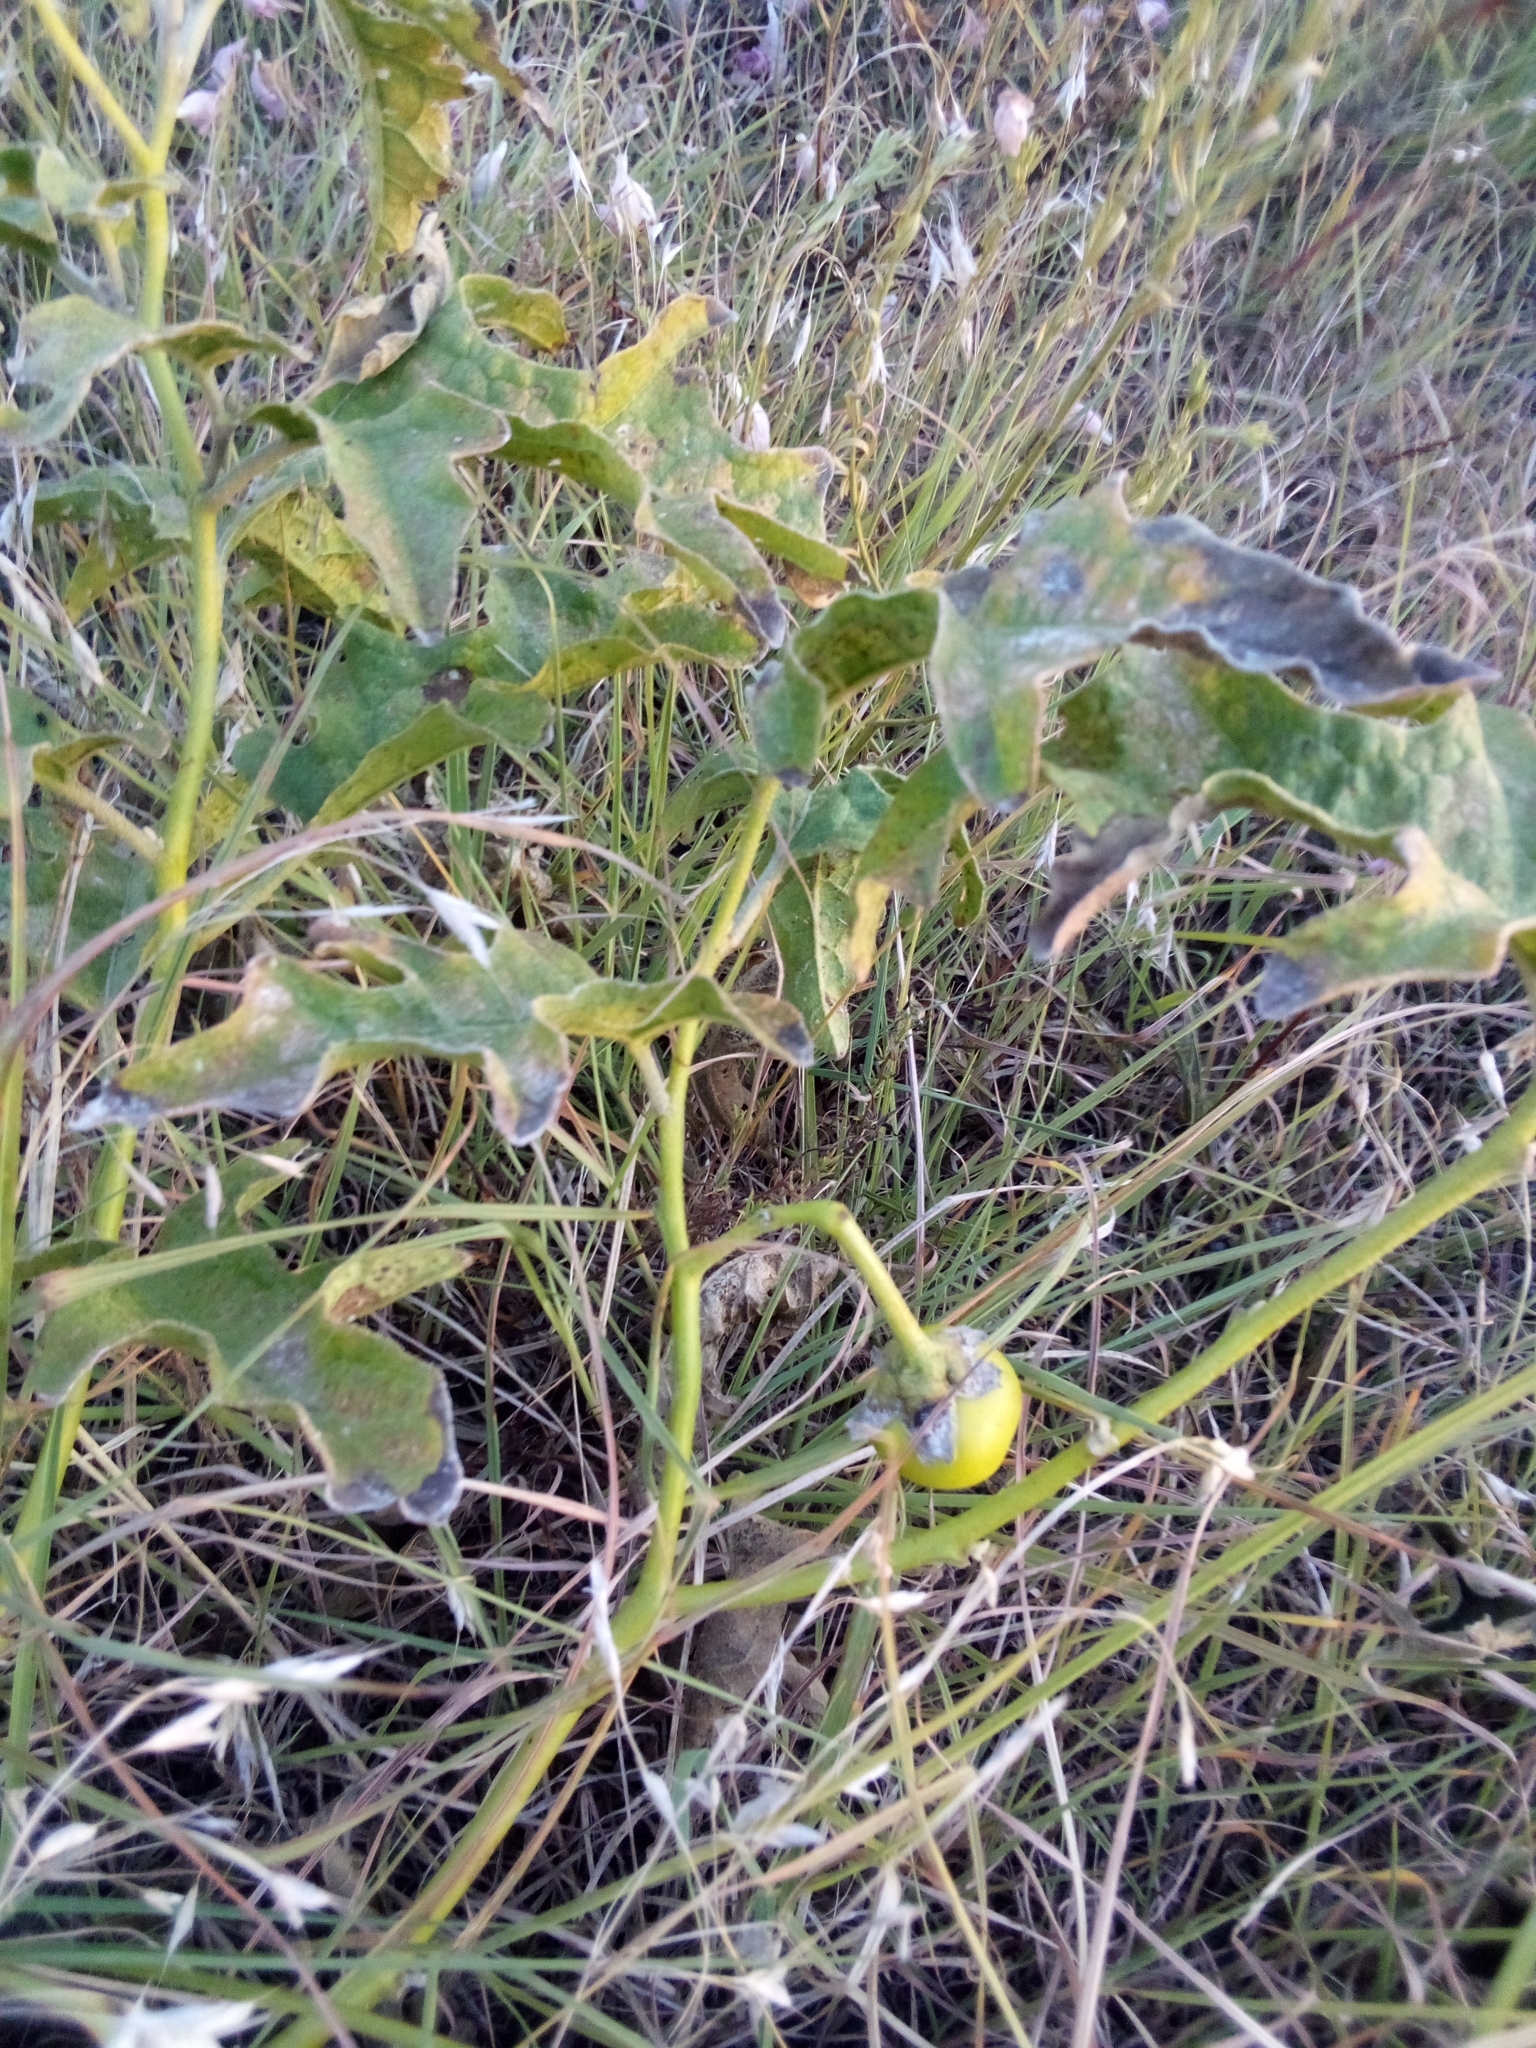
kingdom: Plantae
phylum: Tracheophyta
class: Magnoliopsida
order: Solanales
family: Solanaceae
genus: Solanum
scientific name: Solanum dimidiatum
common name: Carolina horse-nettle
